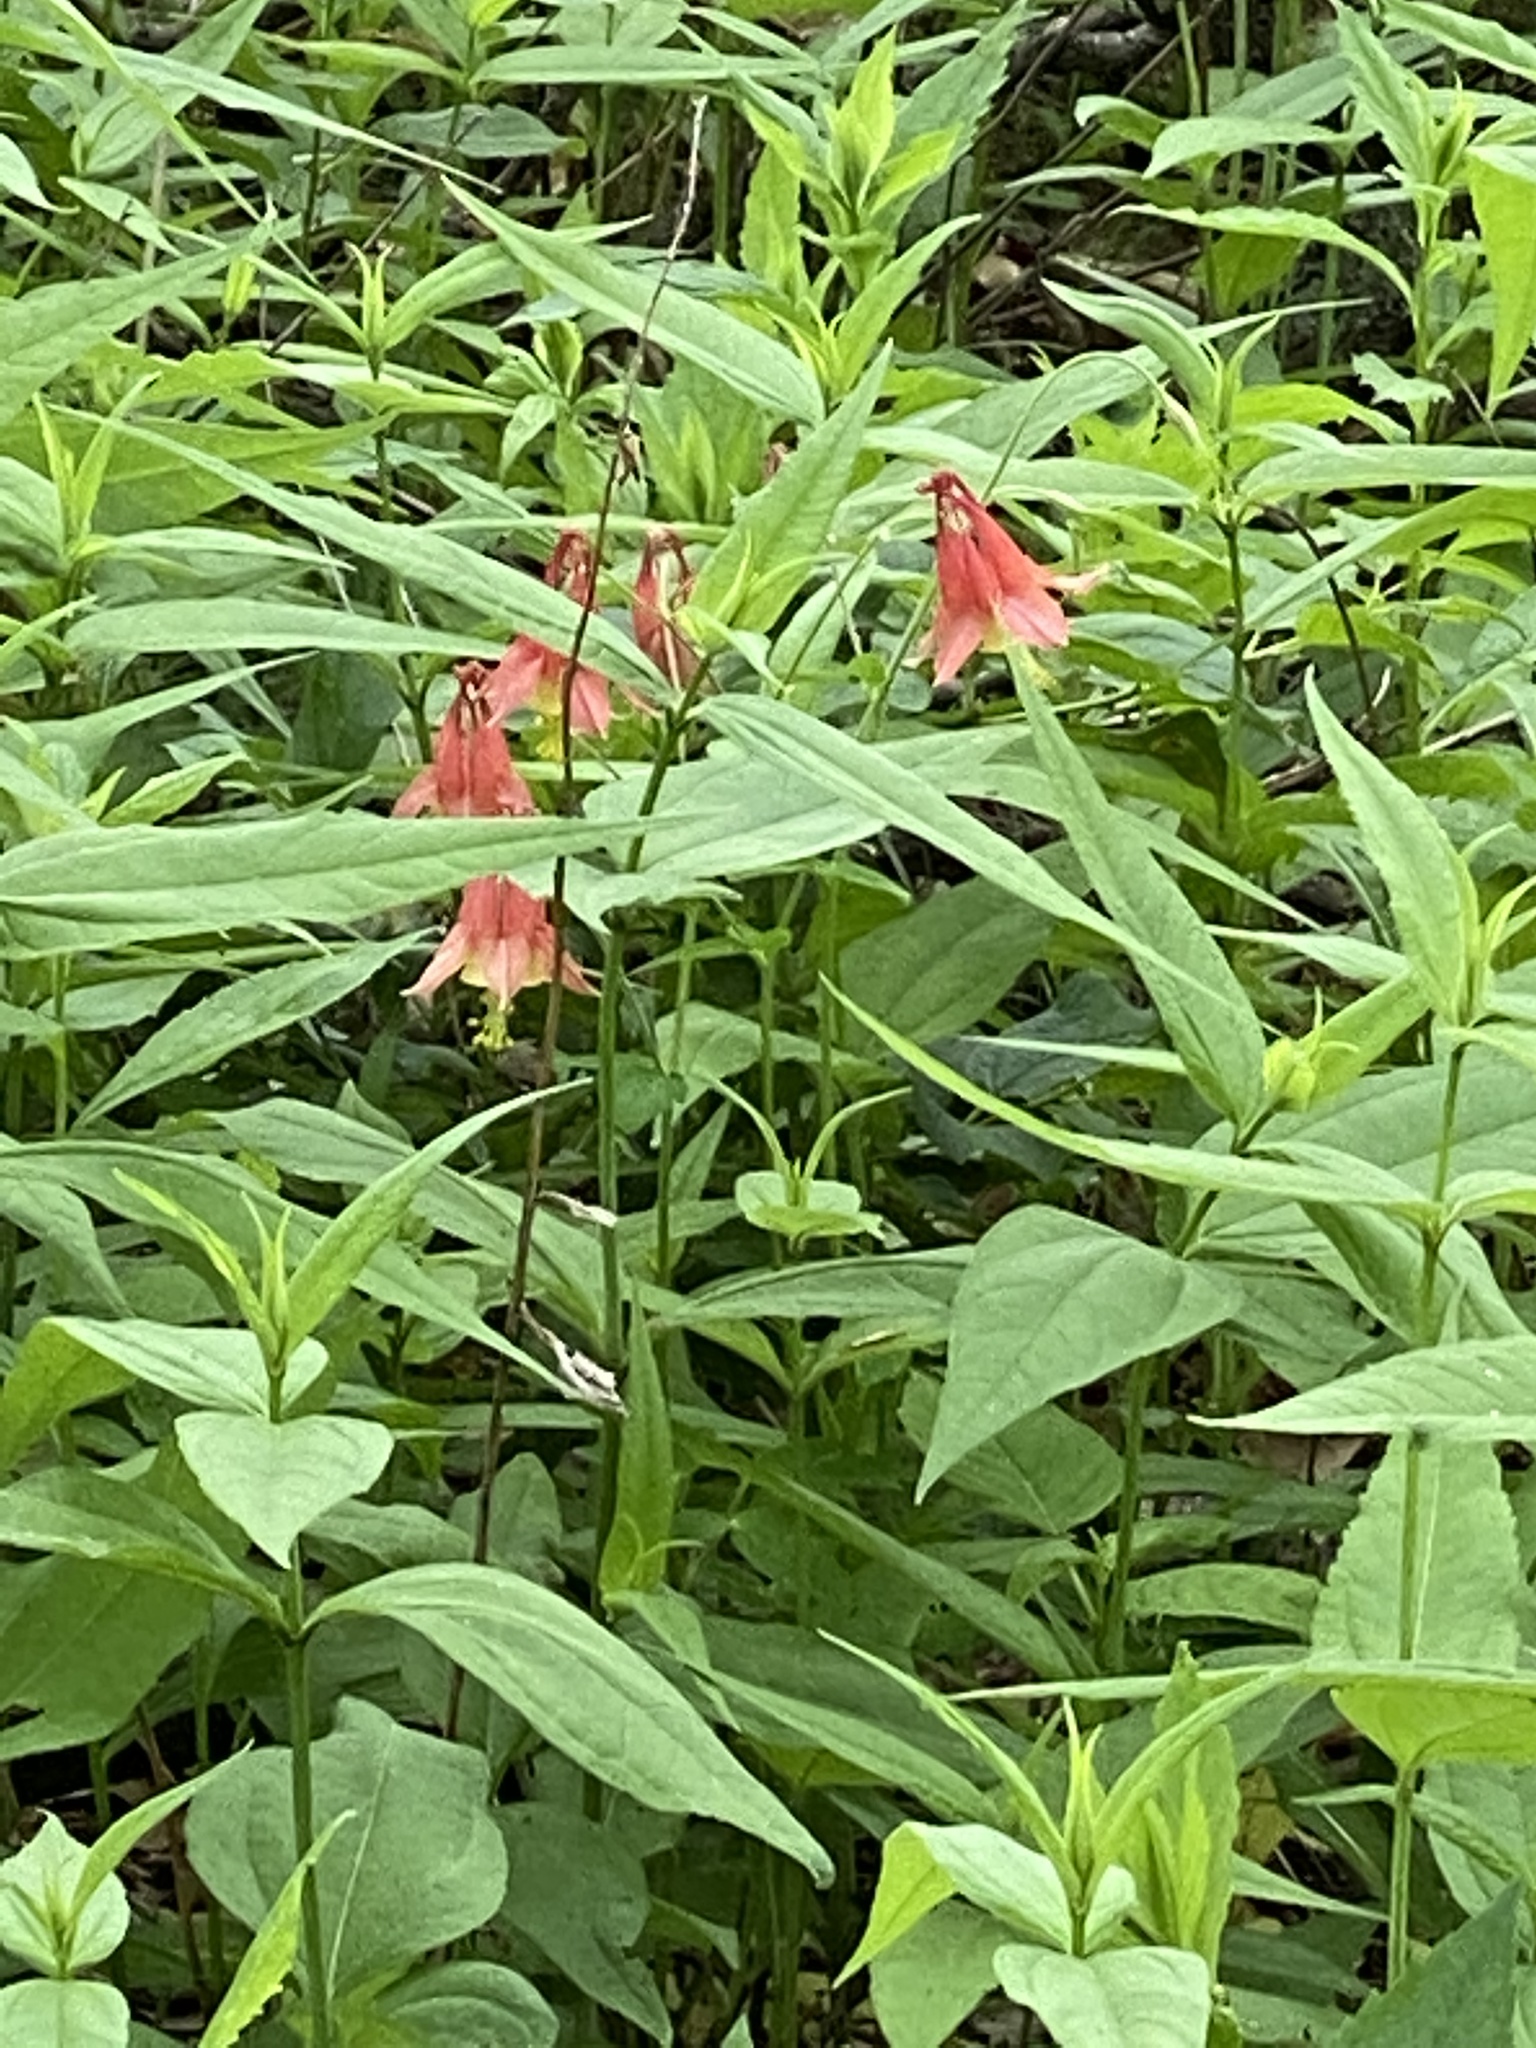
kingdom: Plantae
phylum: Tracheophyta
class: Magnoliopsida
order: Ranunculales
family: Ranunculaceae
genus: Aquilegia
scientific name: Aquilegia canadensis
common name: American columbine
